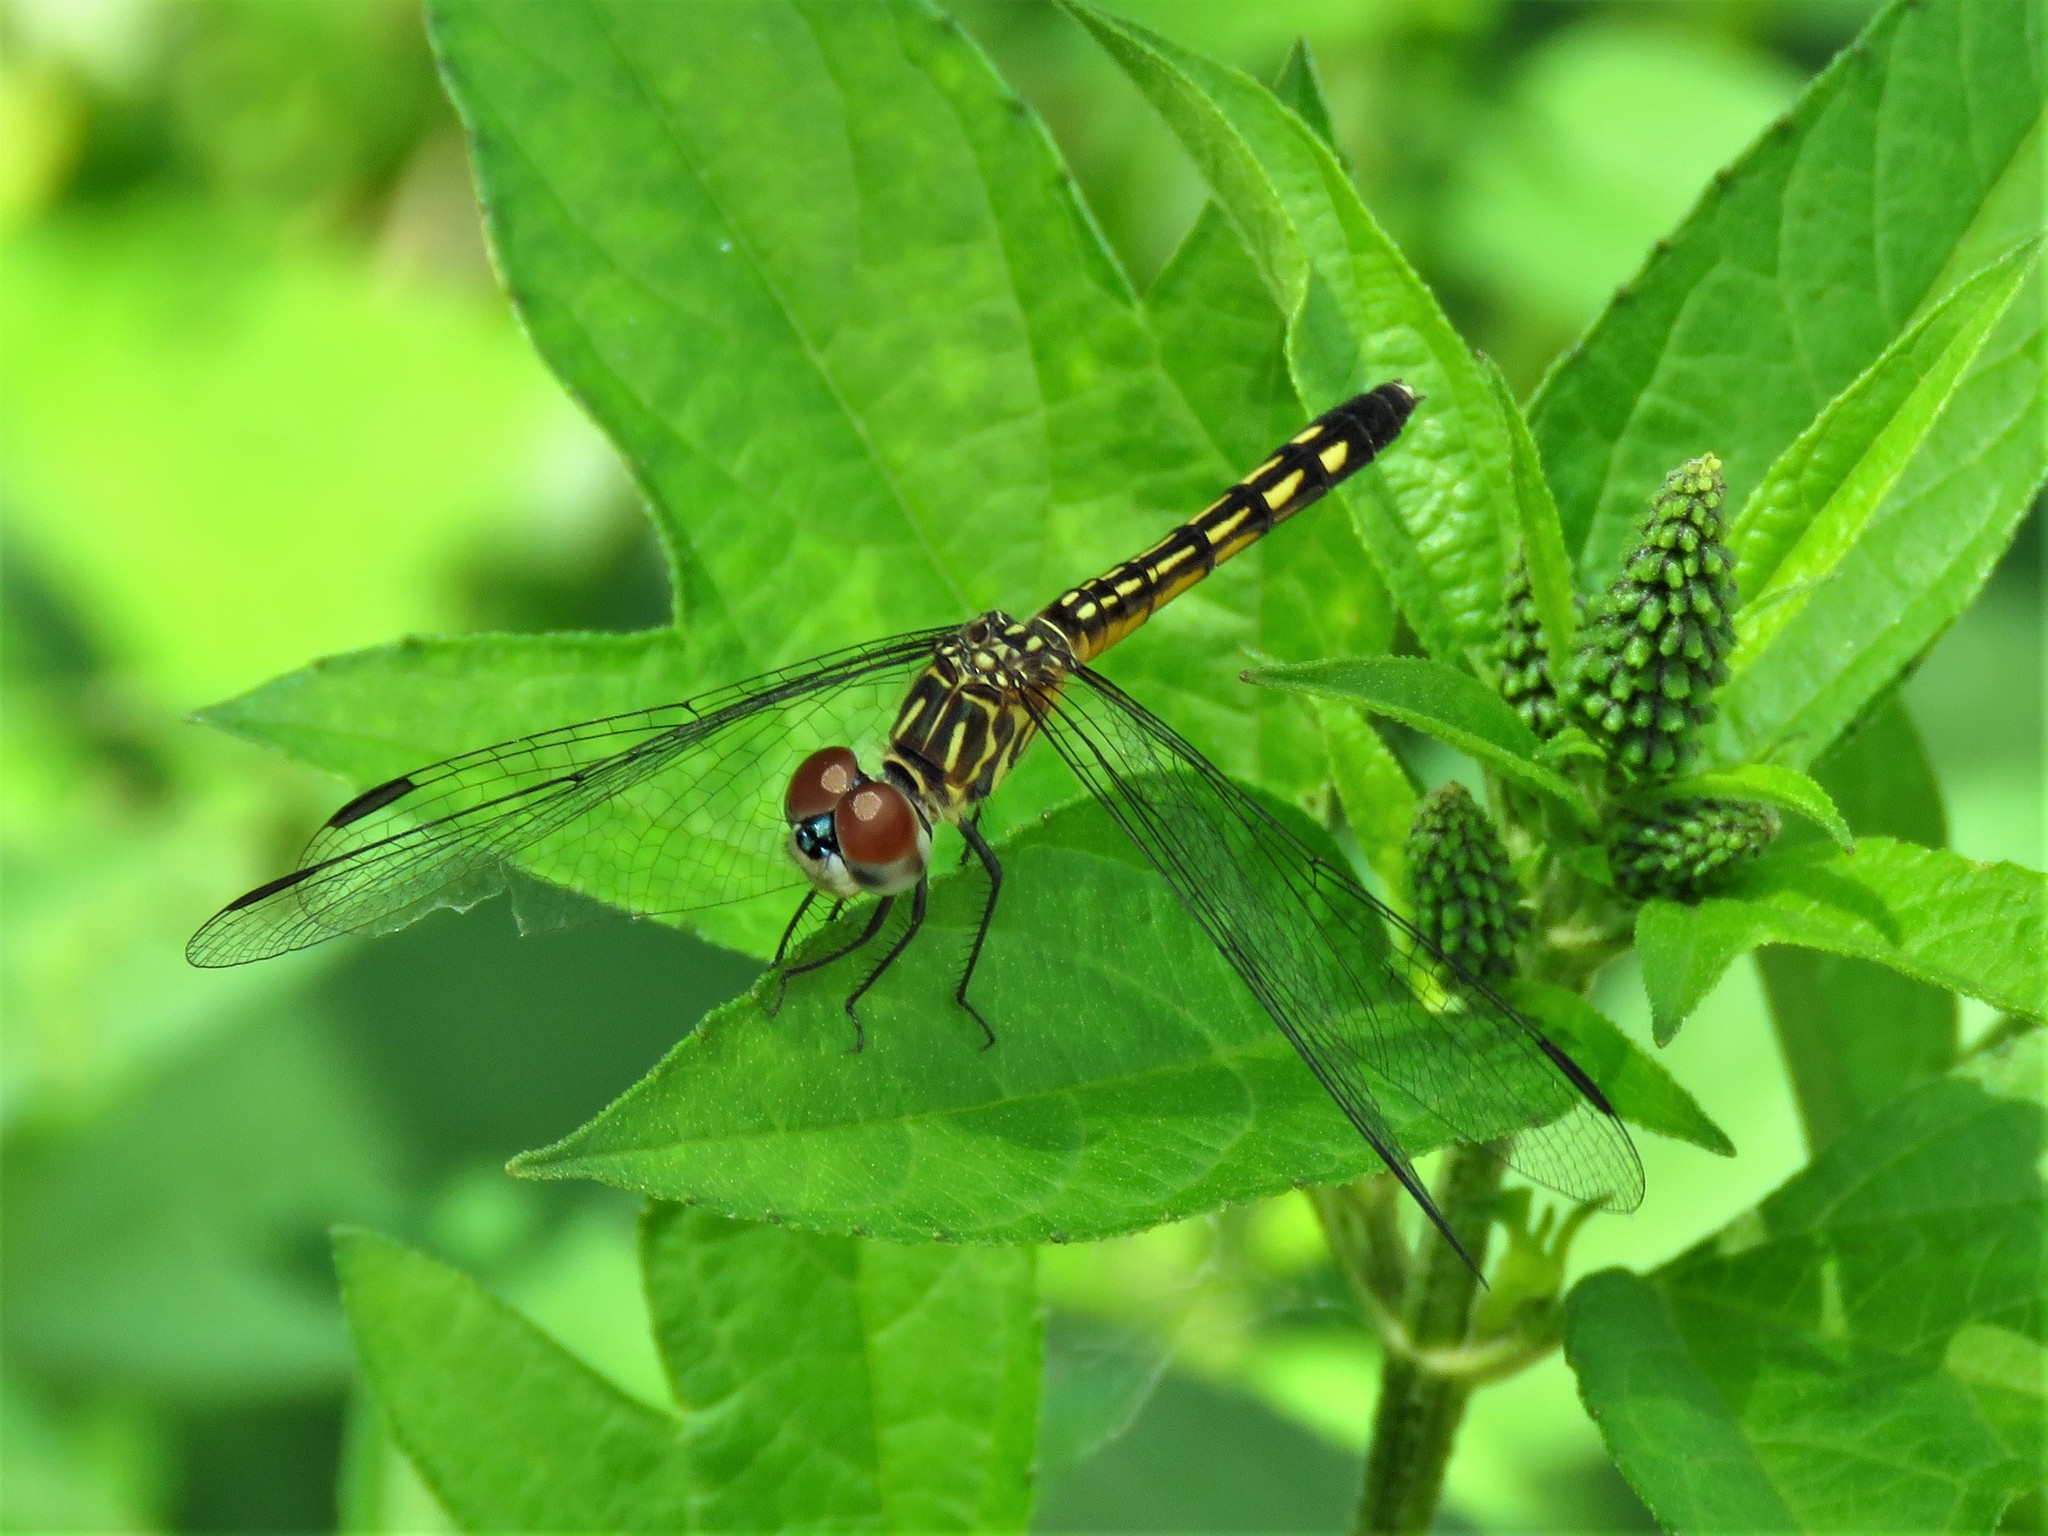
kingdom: Animalia
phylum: Arthropoda
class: Insecta
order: Odonata
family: Libellulidae
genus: Pachydiplax
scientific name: Pachydiplax longipennis
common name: Blue dasher
